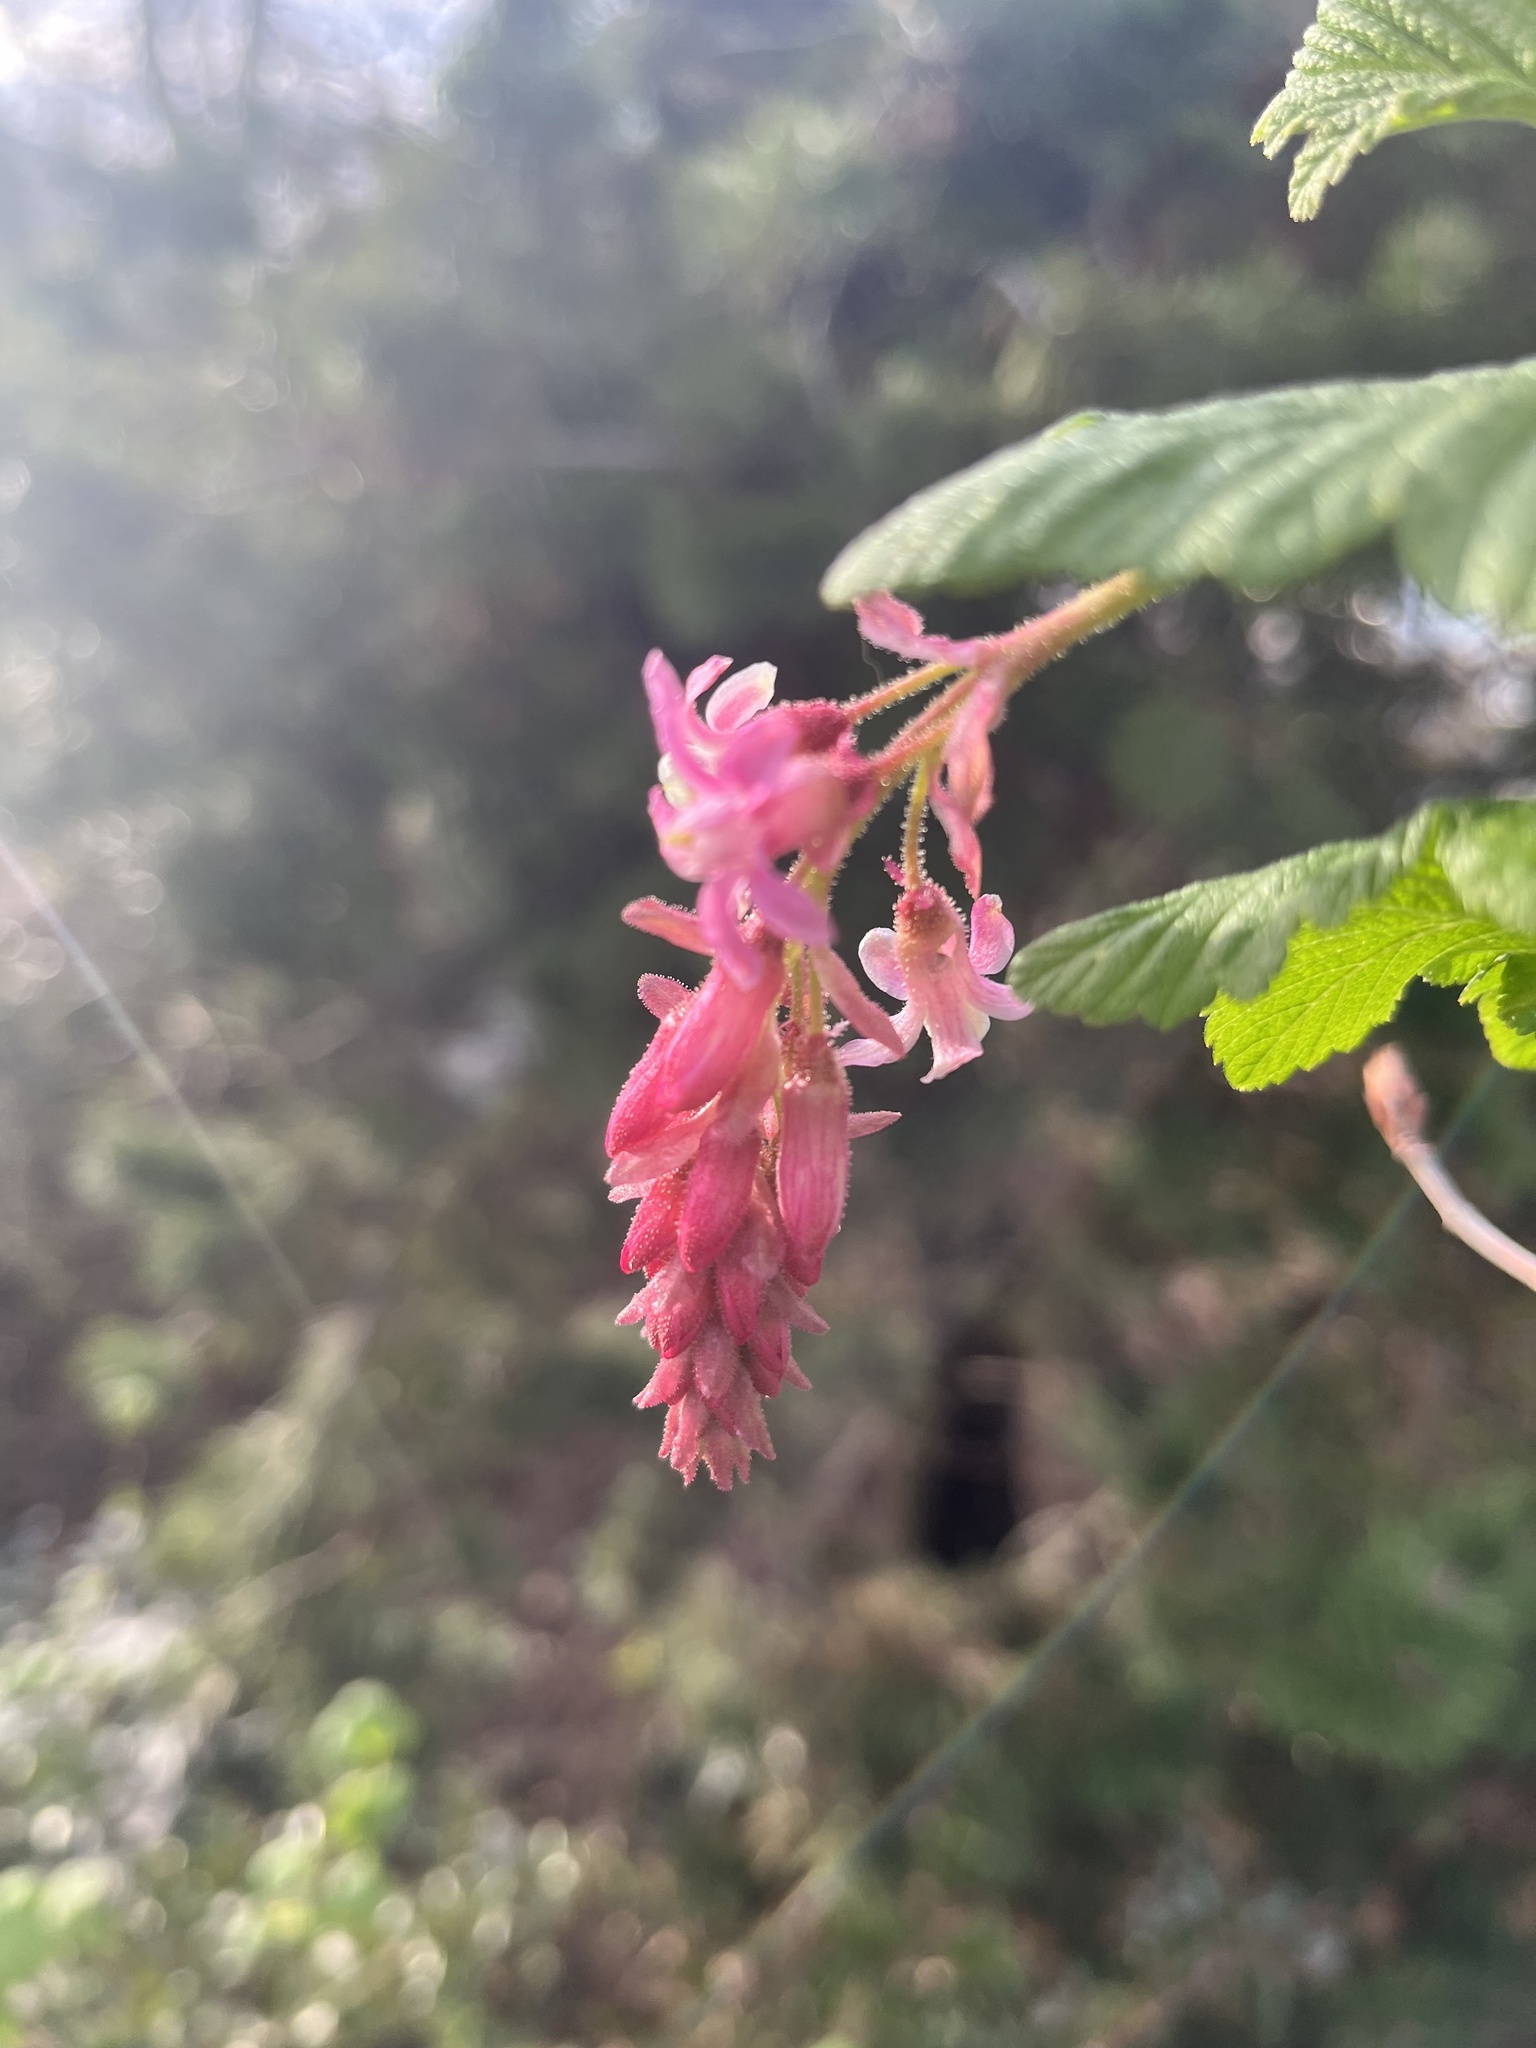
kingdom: Plantae
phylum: Tracheophyta
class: Magnoliopsida
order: Saxifragales
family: Grossulariaceae
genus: Ribes
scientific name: Ribes sanguineum
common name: Flowering currant
